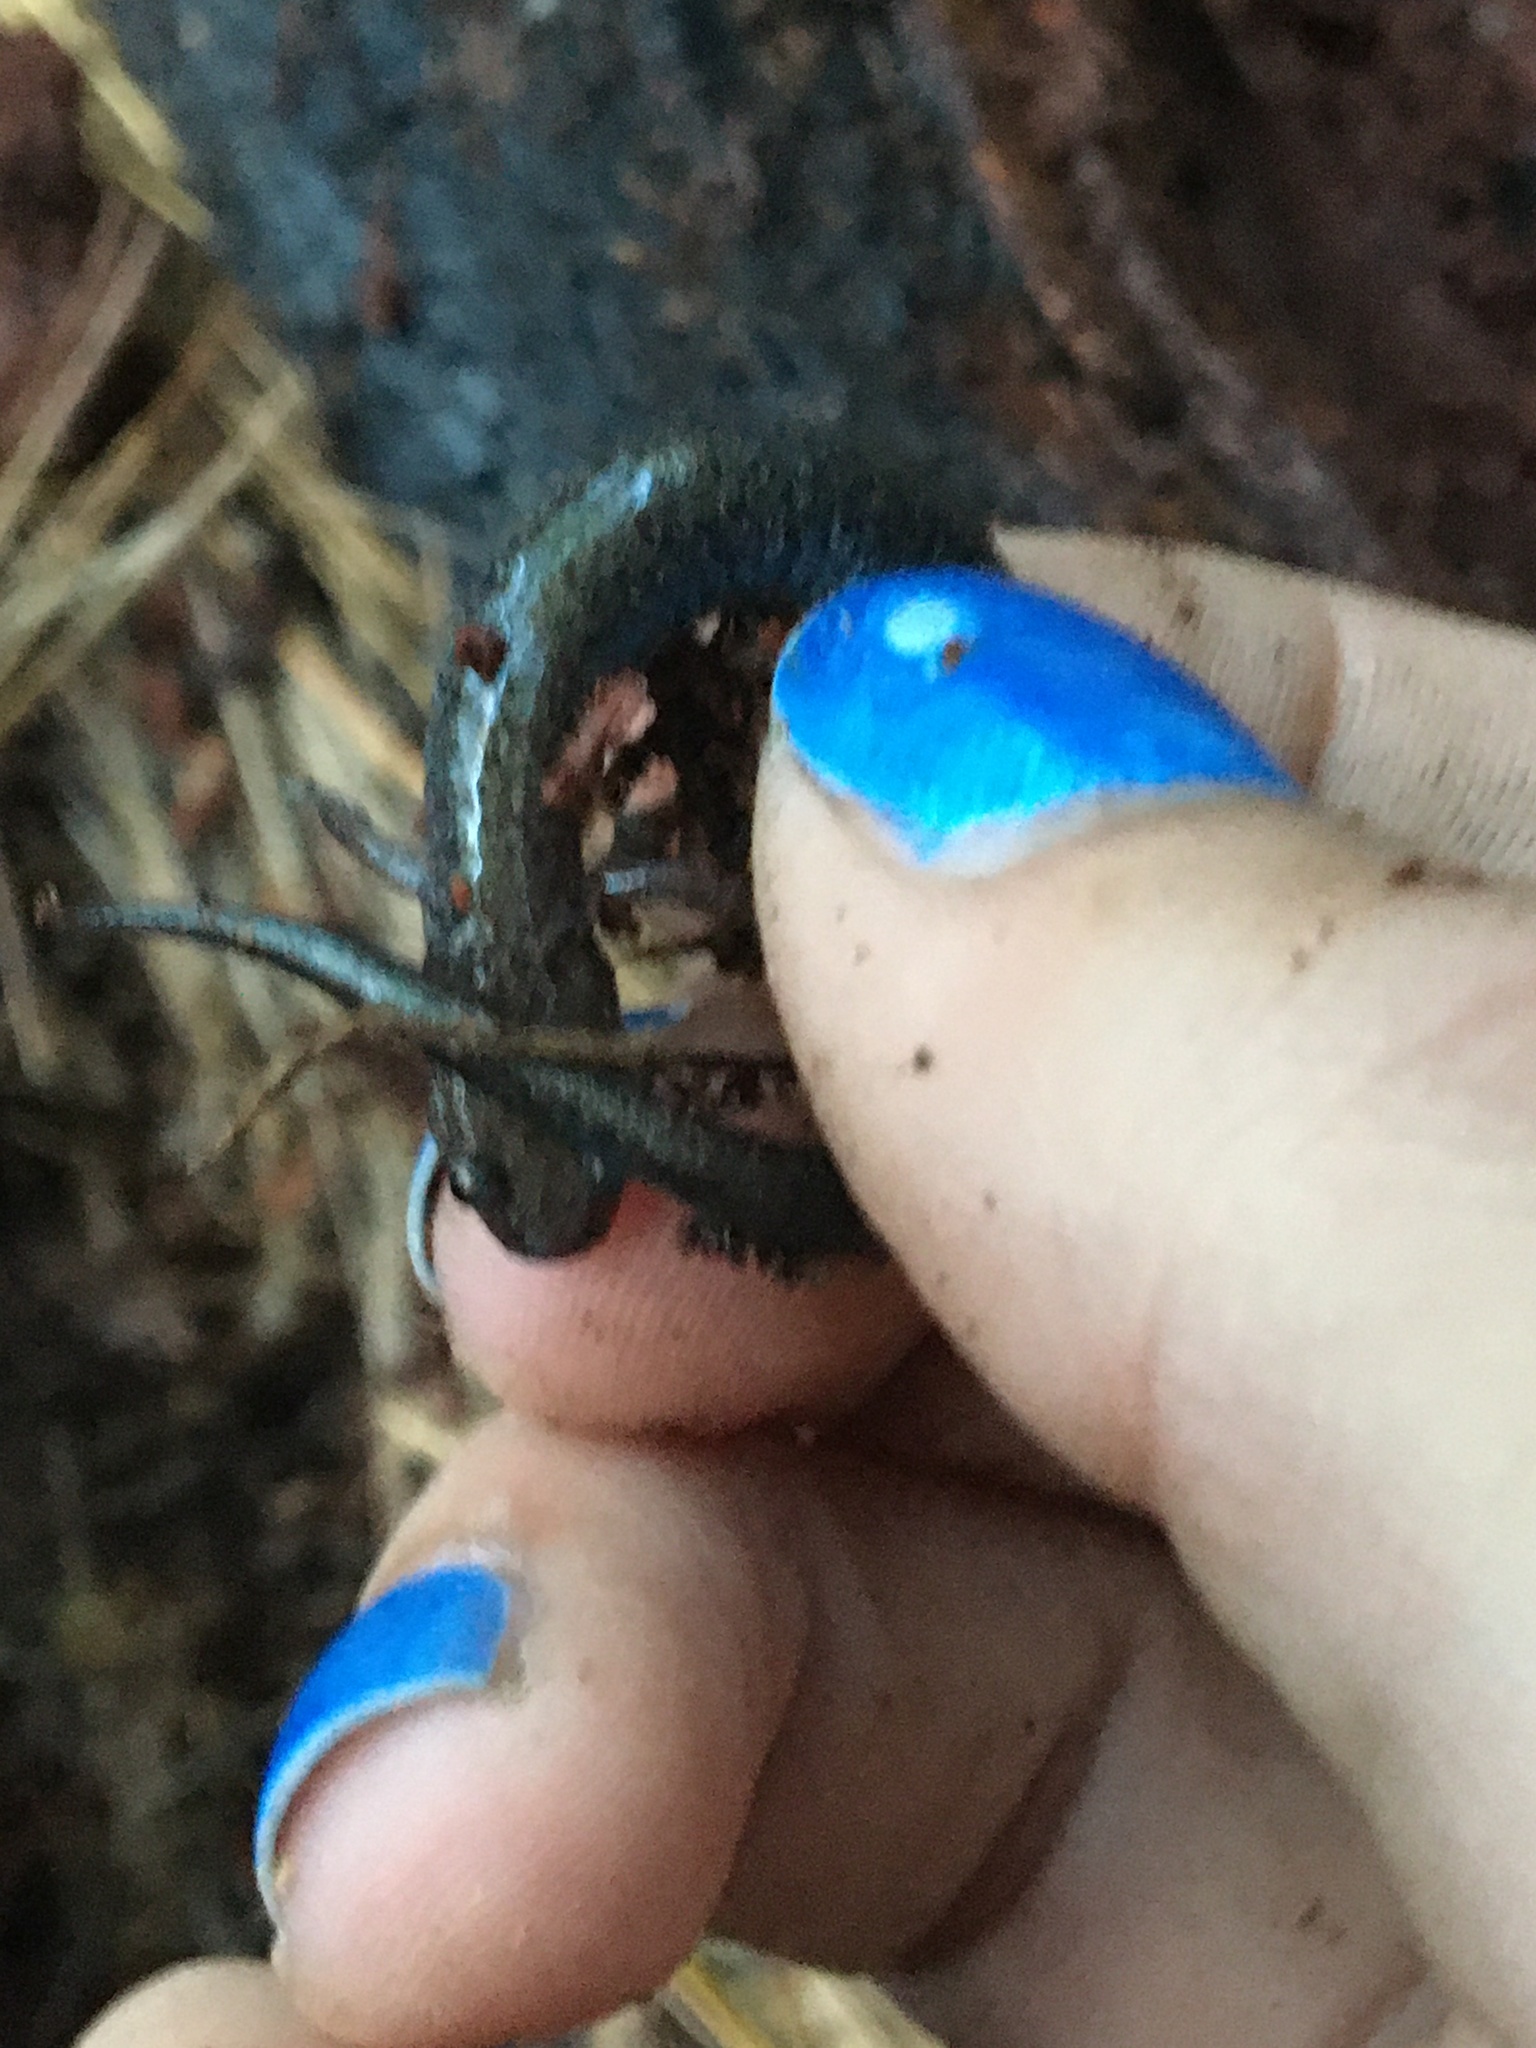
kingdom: Animalia
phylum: Chordata
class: Amphibia
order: Caudata
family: Plethodontidae
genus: Plethodon
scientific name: Plethodon cinereus
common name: Redback salamander
